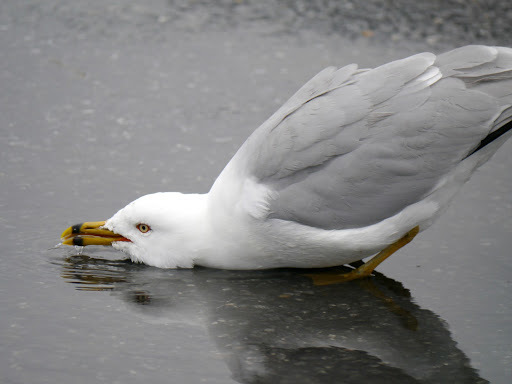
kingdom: Animalia
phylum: Chordata
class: Aves
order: Charadriiformes
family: Laridae
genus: Larus
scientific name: Larus delawarensis
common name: Ring-billed gull
